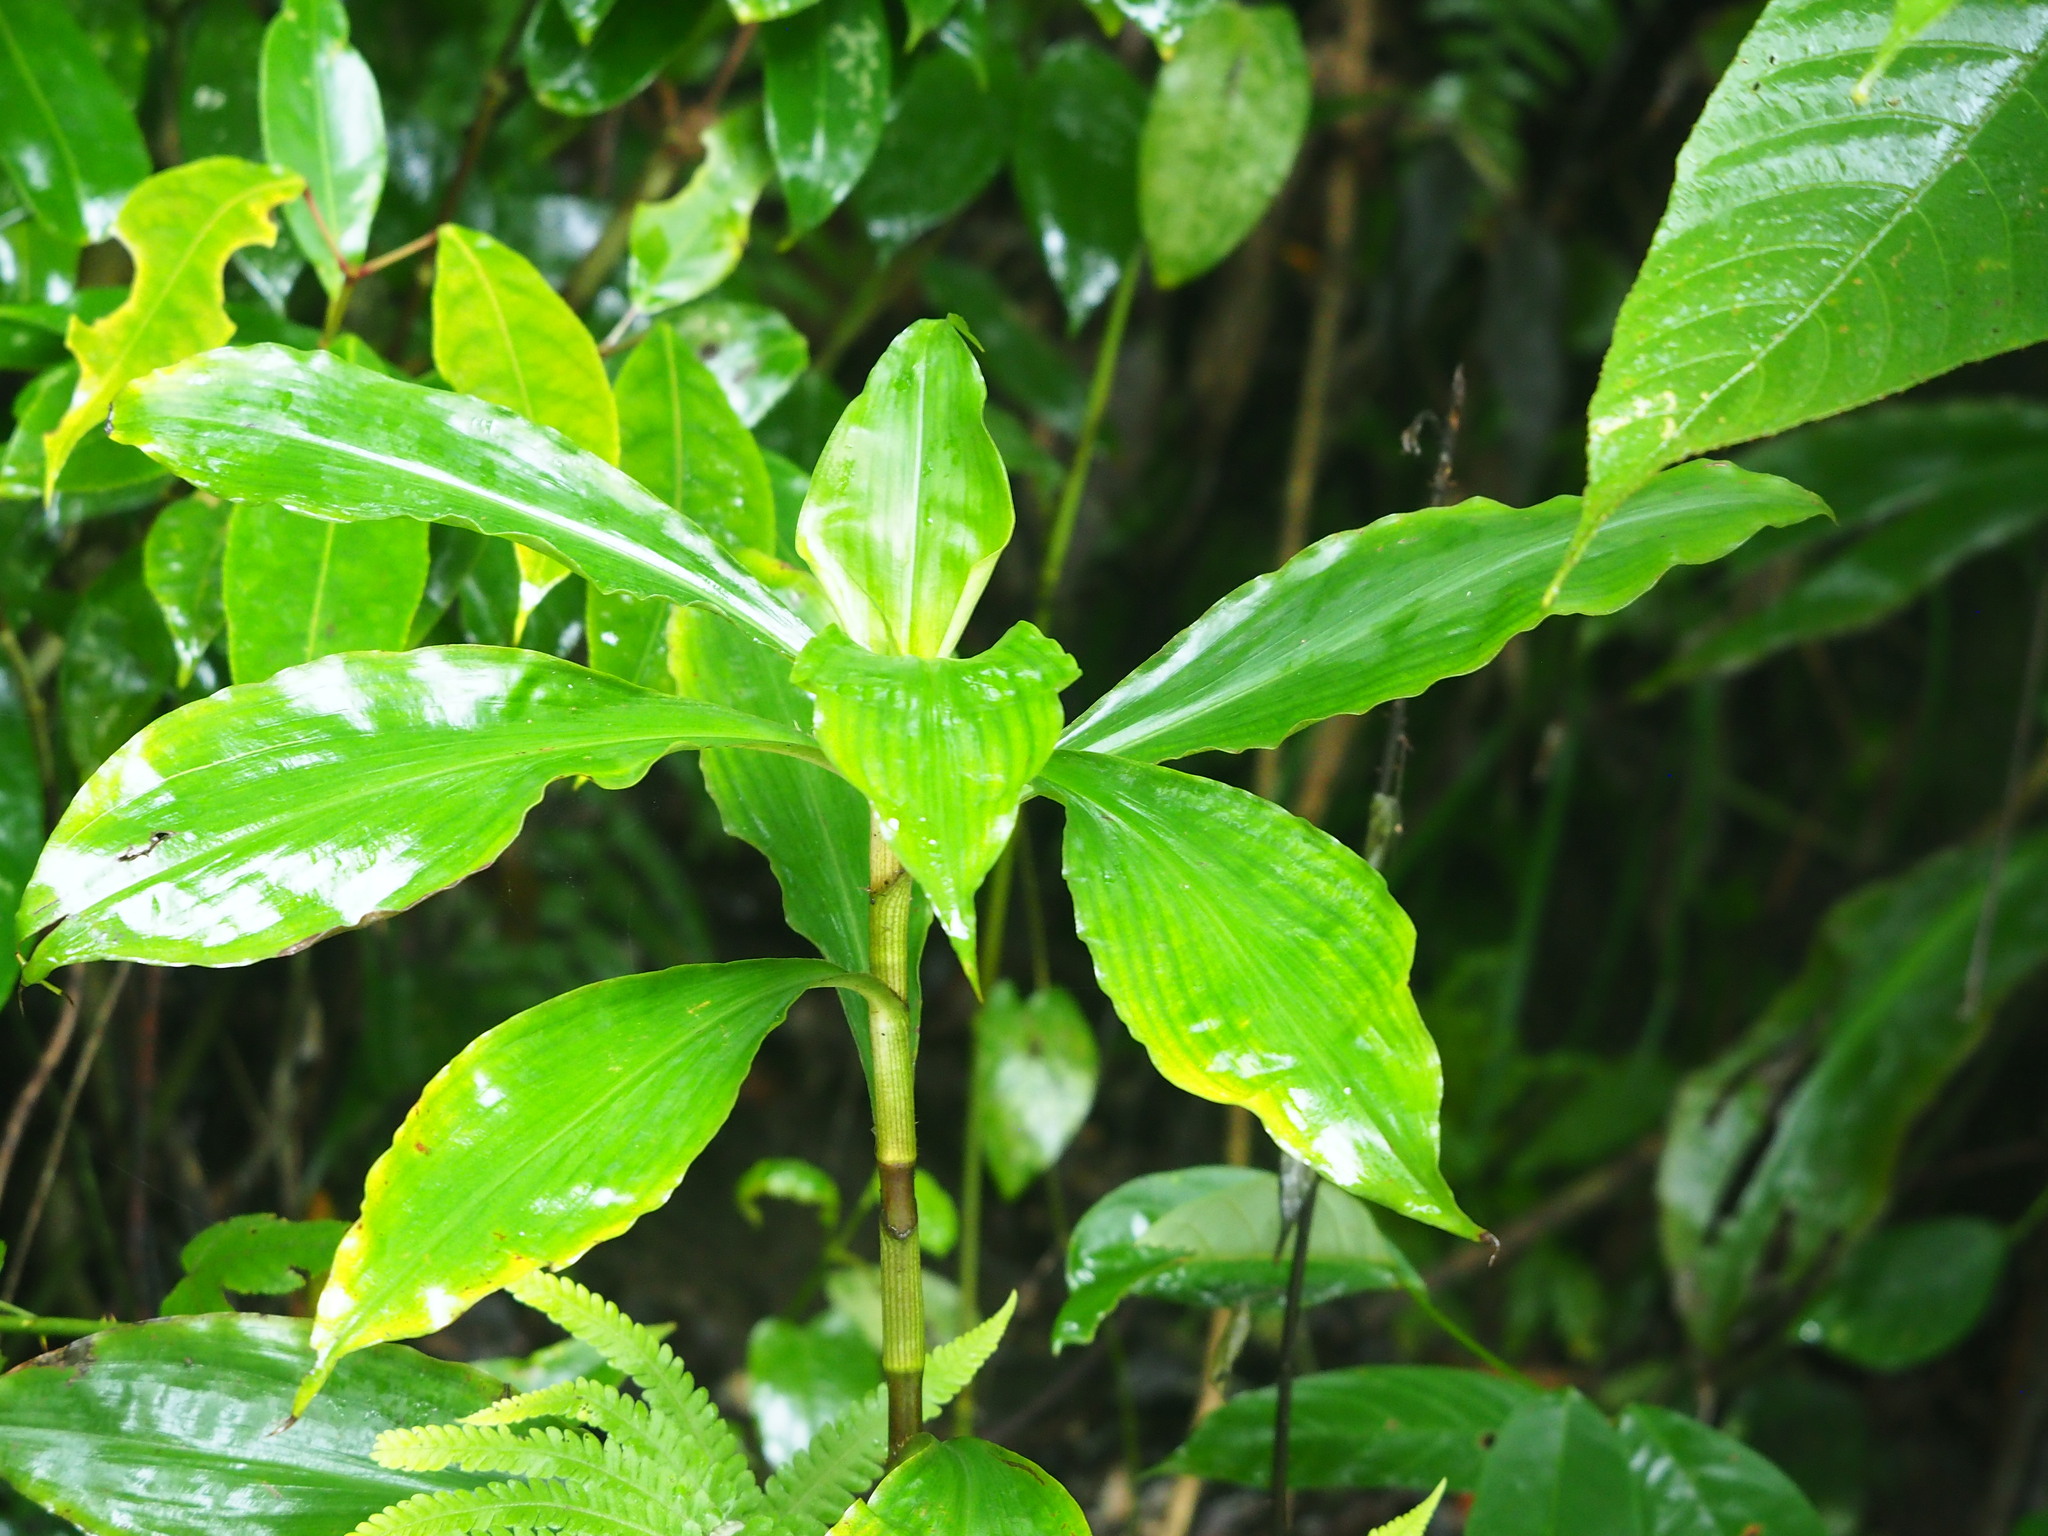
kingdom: Plantae
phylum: Tracheophyta
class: Liliopsida
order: Commelinales
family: Commelinaceae
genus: Amischotolype
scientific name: Amischotolype glabrata
